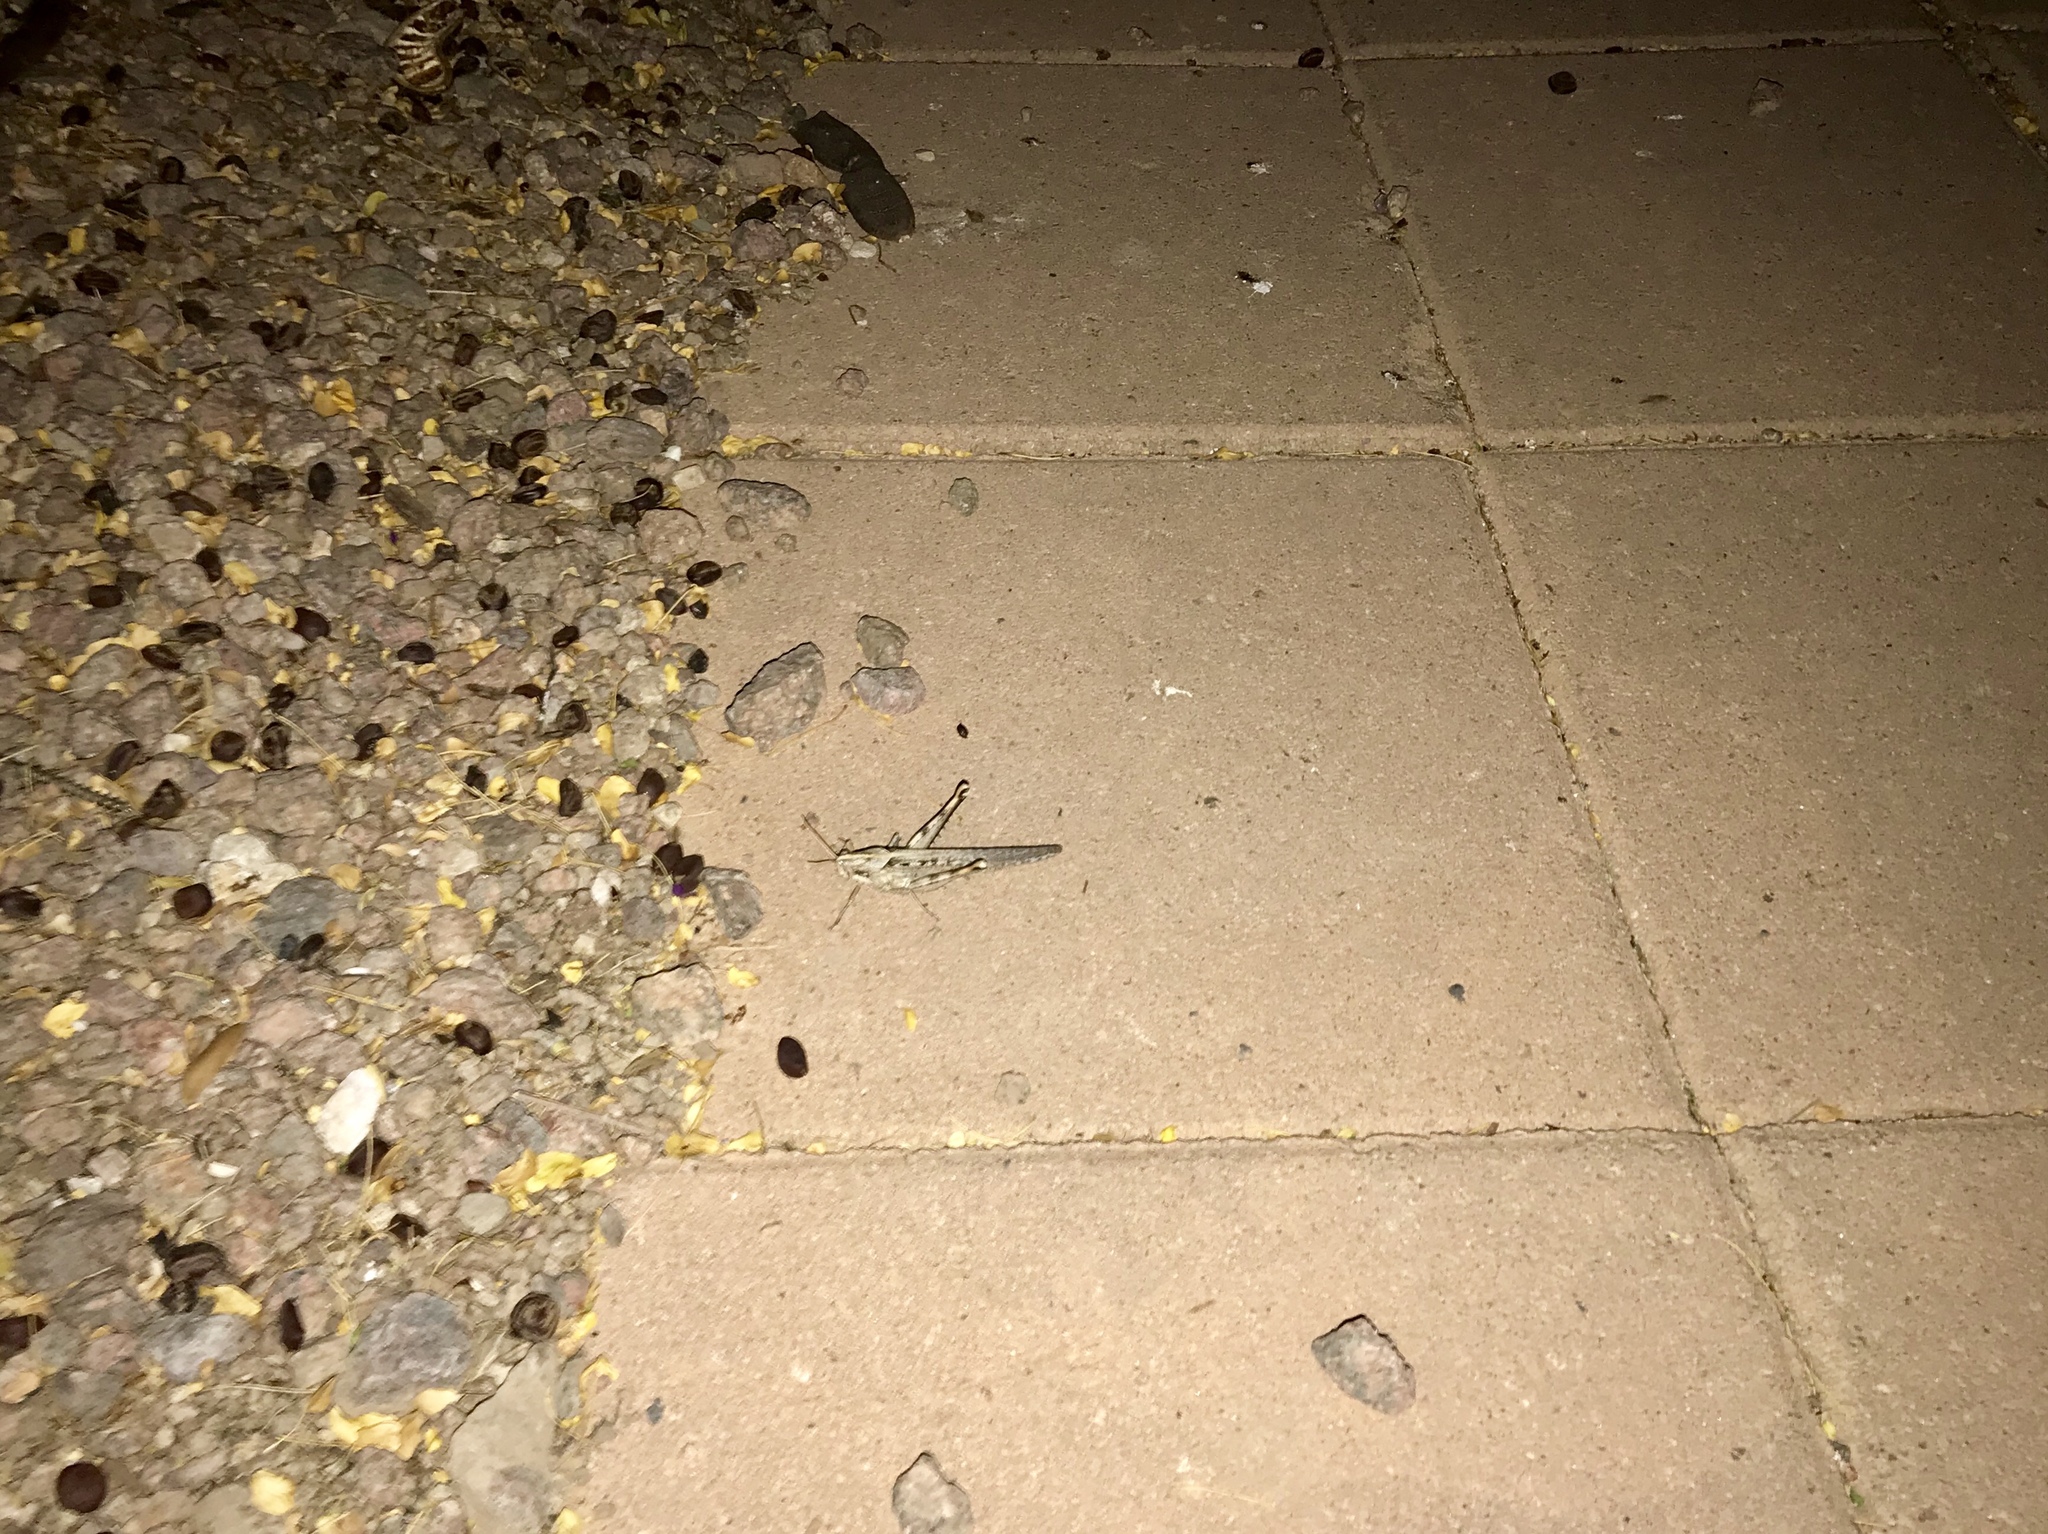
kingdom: Animalia
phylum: Arthropoda
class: Insecta
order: Orthoptera
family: Acrididae
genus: Schistocerca
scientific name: Schistocerca nitens
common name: Vagrant grasshopper
